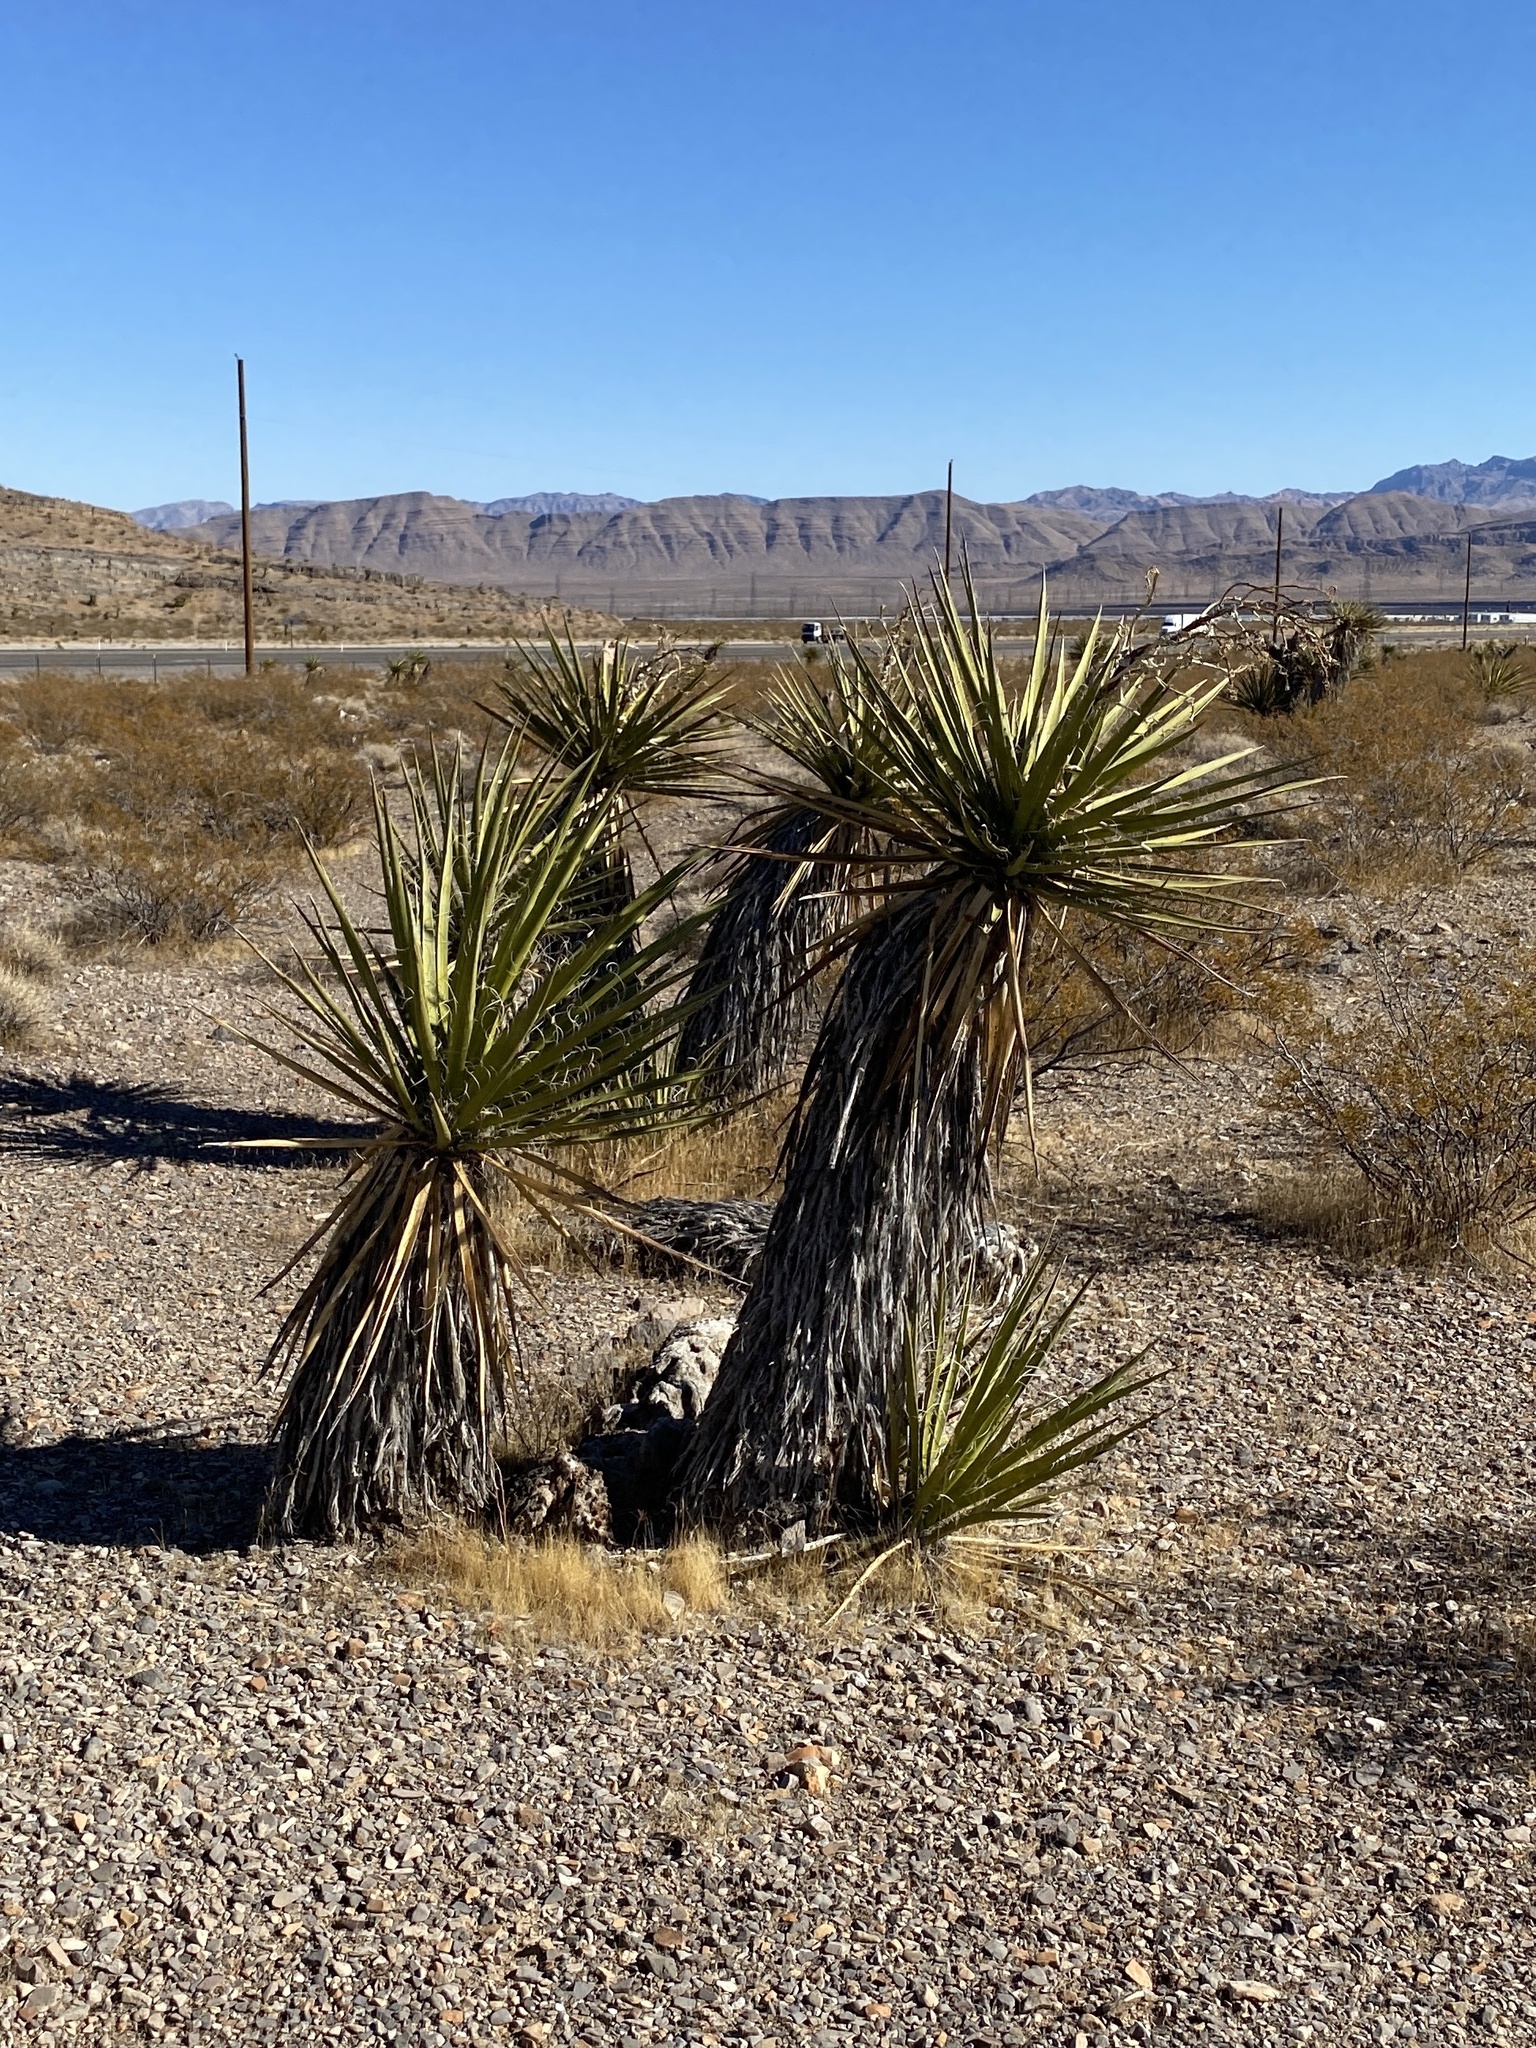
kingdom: Plantae
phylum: Tracheophyta
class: Liliopsida
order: Asparagales
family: Asparagaceae
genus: Yucca
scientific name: Yucca schidigera
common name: Mojave yucca
